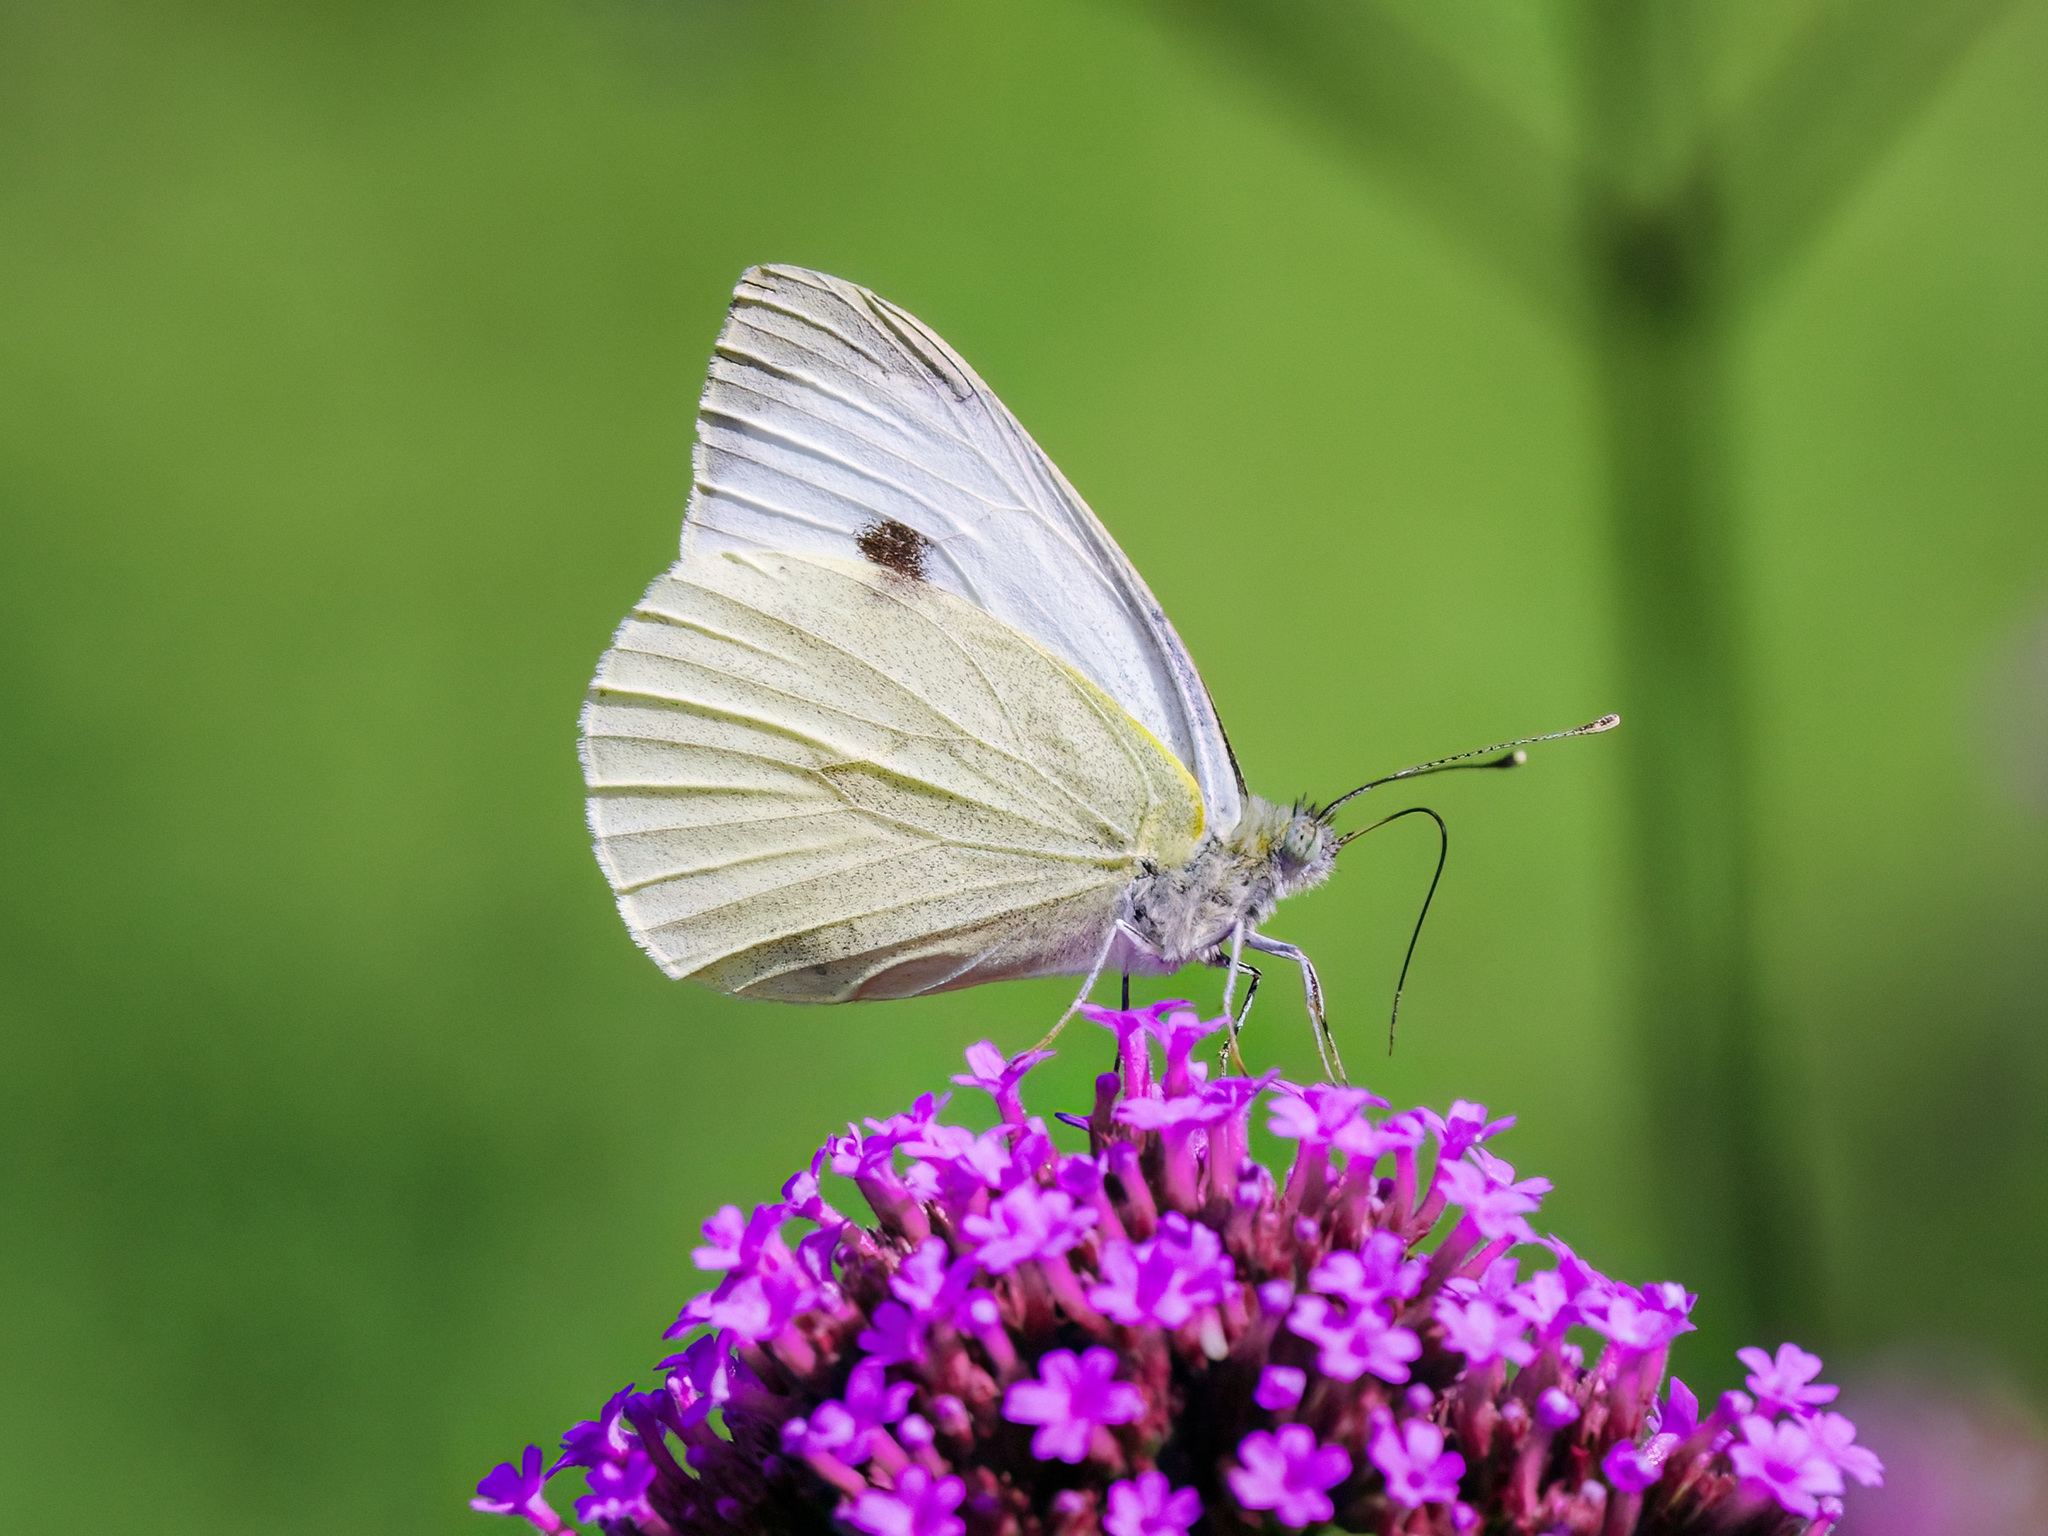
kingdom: Animalia
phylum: Arthropoda
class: Insecta
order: Lepidoptera
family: Pieridae
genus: Pieris
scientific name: Pieris brassicae
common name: Large white
